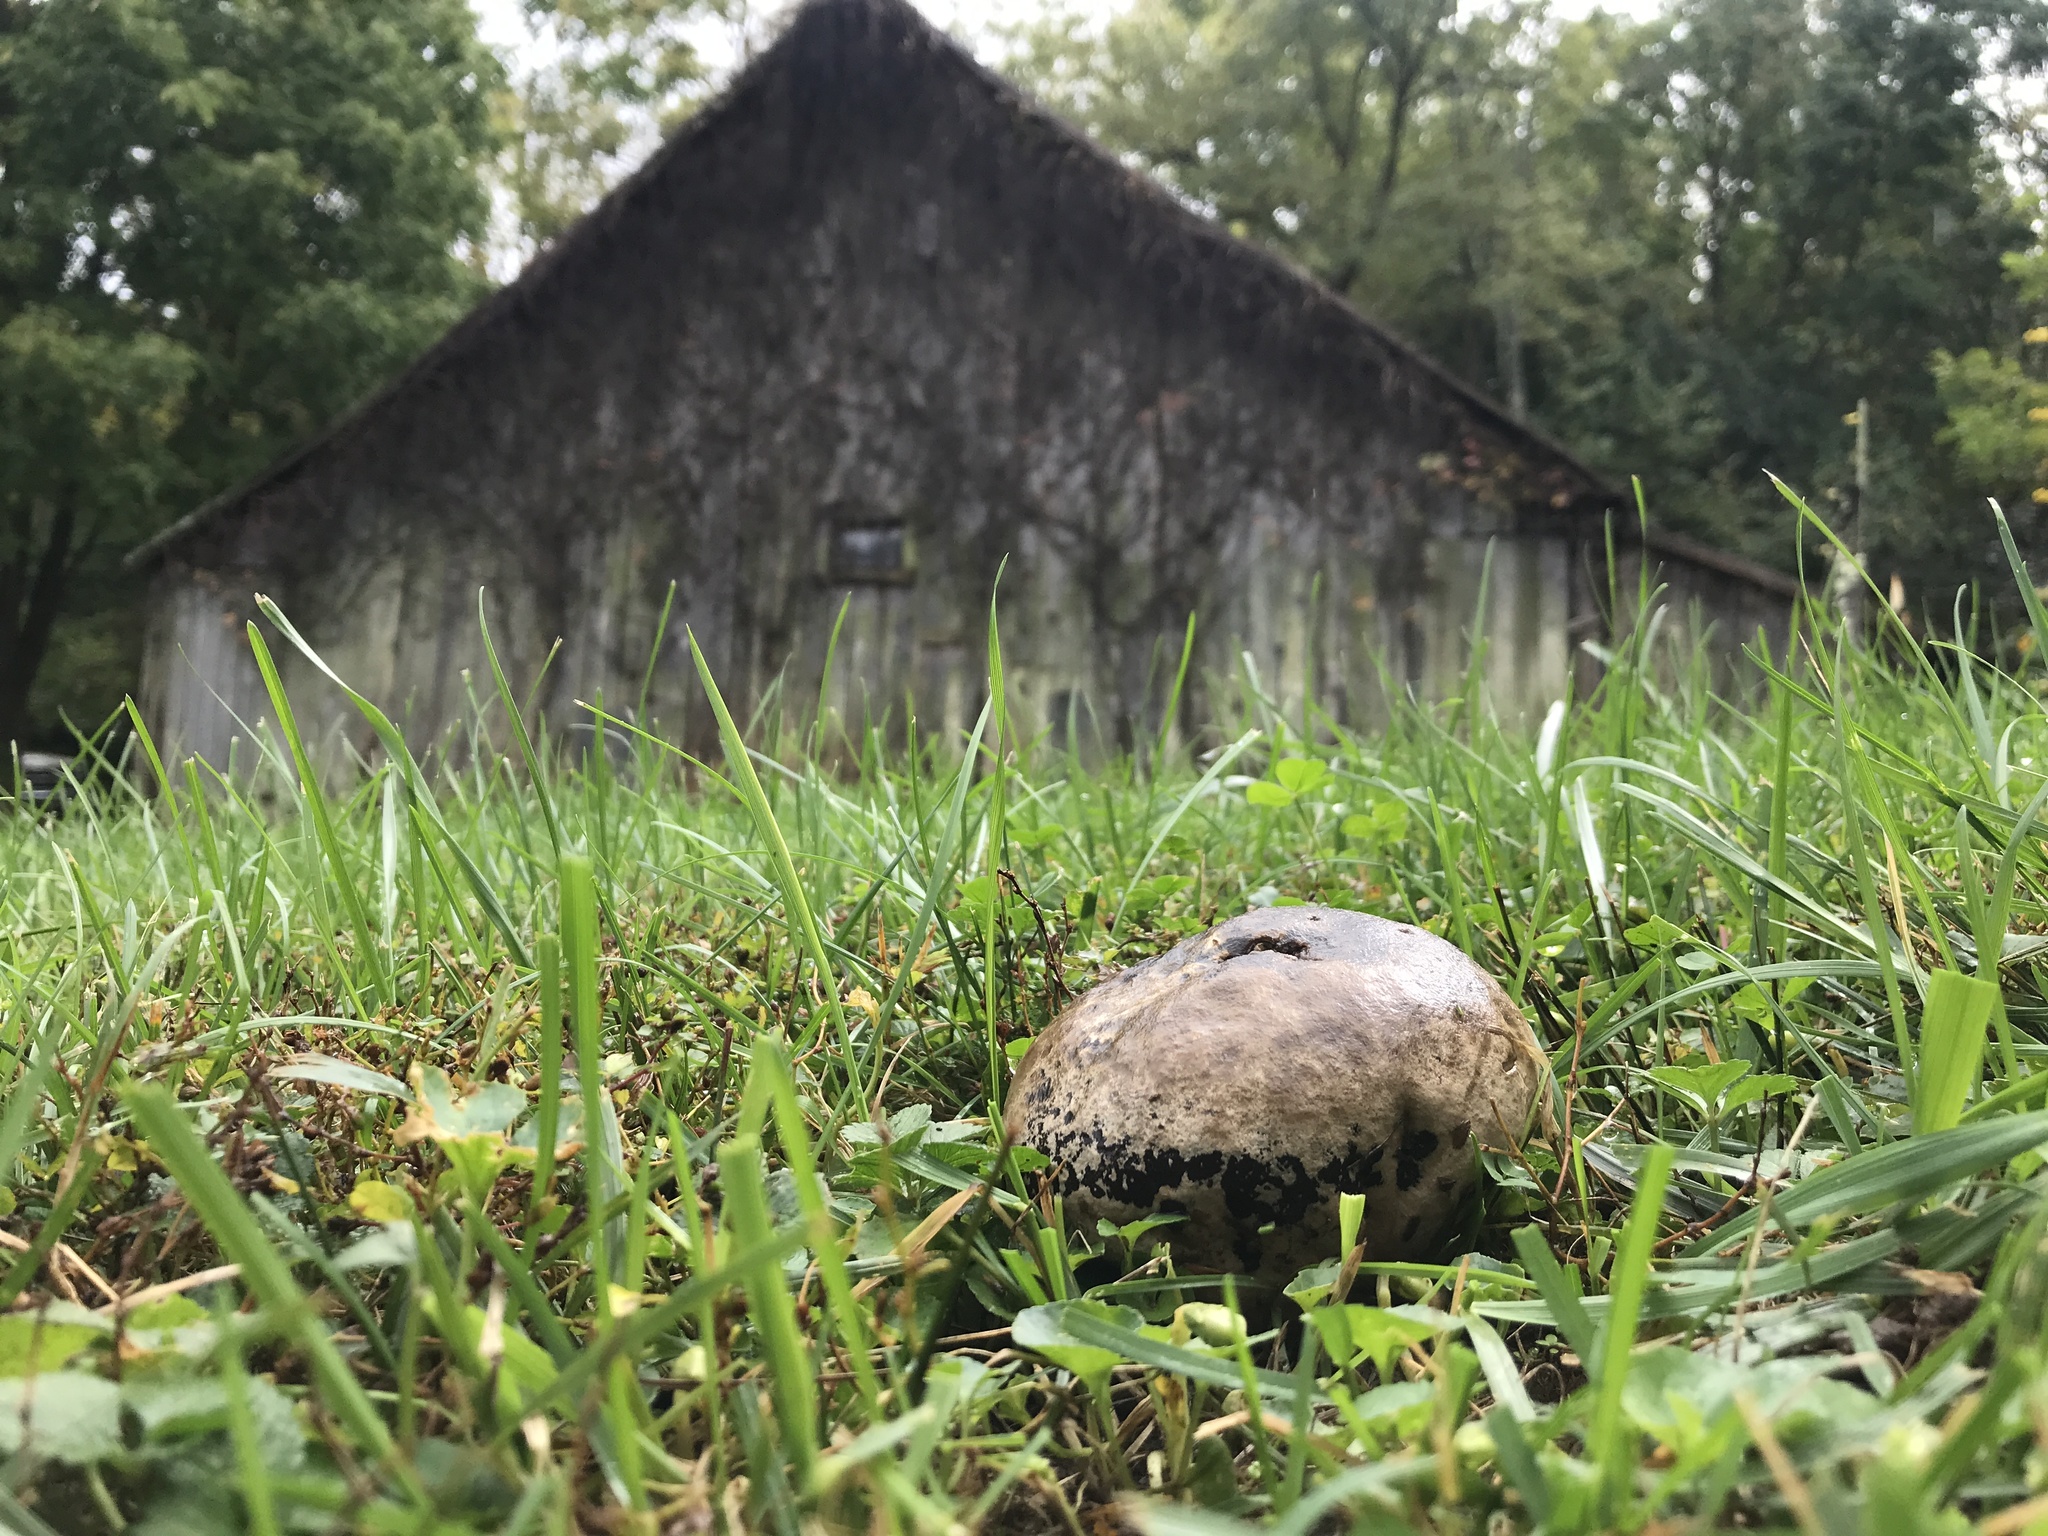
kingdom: Fungi
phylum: Basidiomycota
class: Agaricomycetes
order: Agaricales
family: Lycoperdaceae
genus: Calvatia
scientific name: Calvatia cyathiformis
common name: Purple-spored puffball
